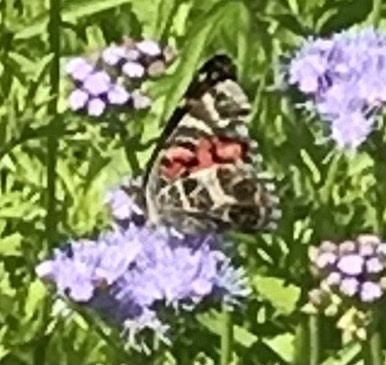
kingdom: Animalia
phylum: Arthropoda
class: Insecta
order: Lepidoptera
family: Nymphalidae
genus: Vanessa
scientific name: Vanessa virginiensis
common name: American lady
